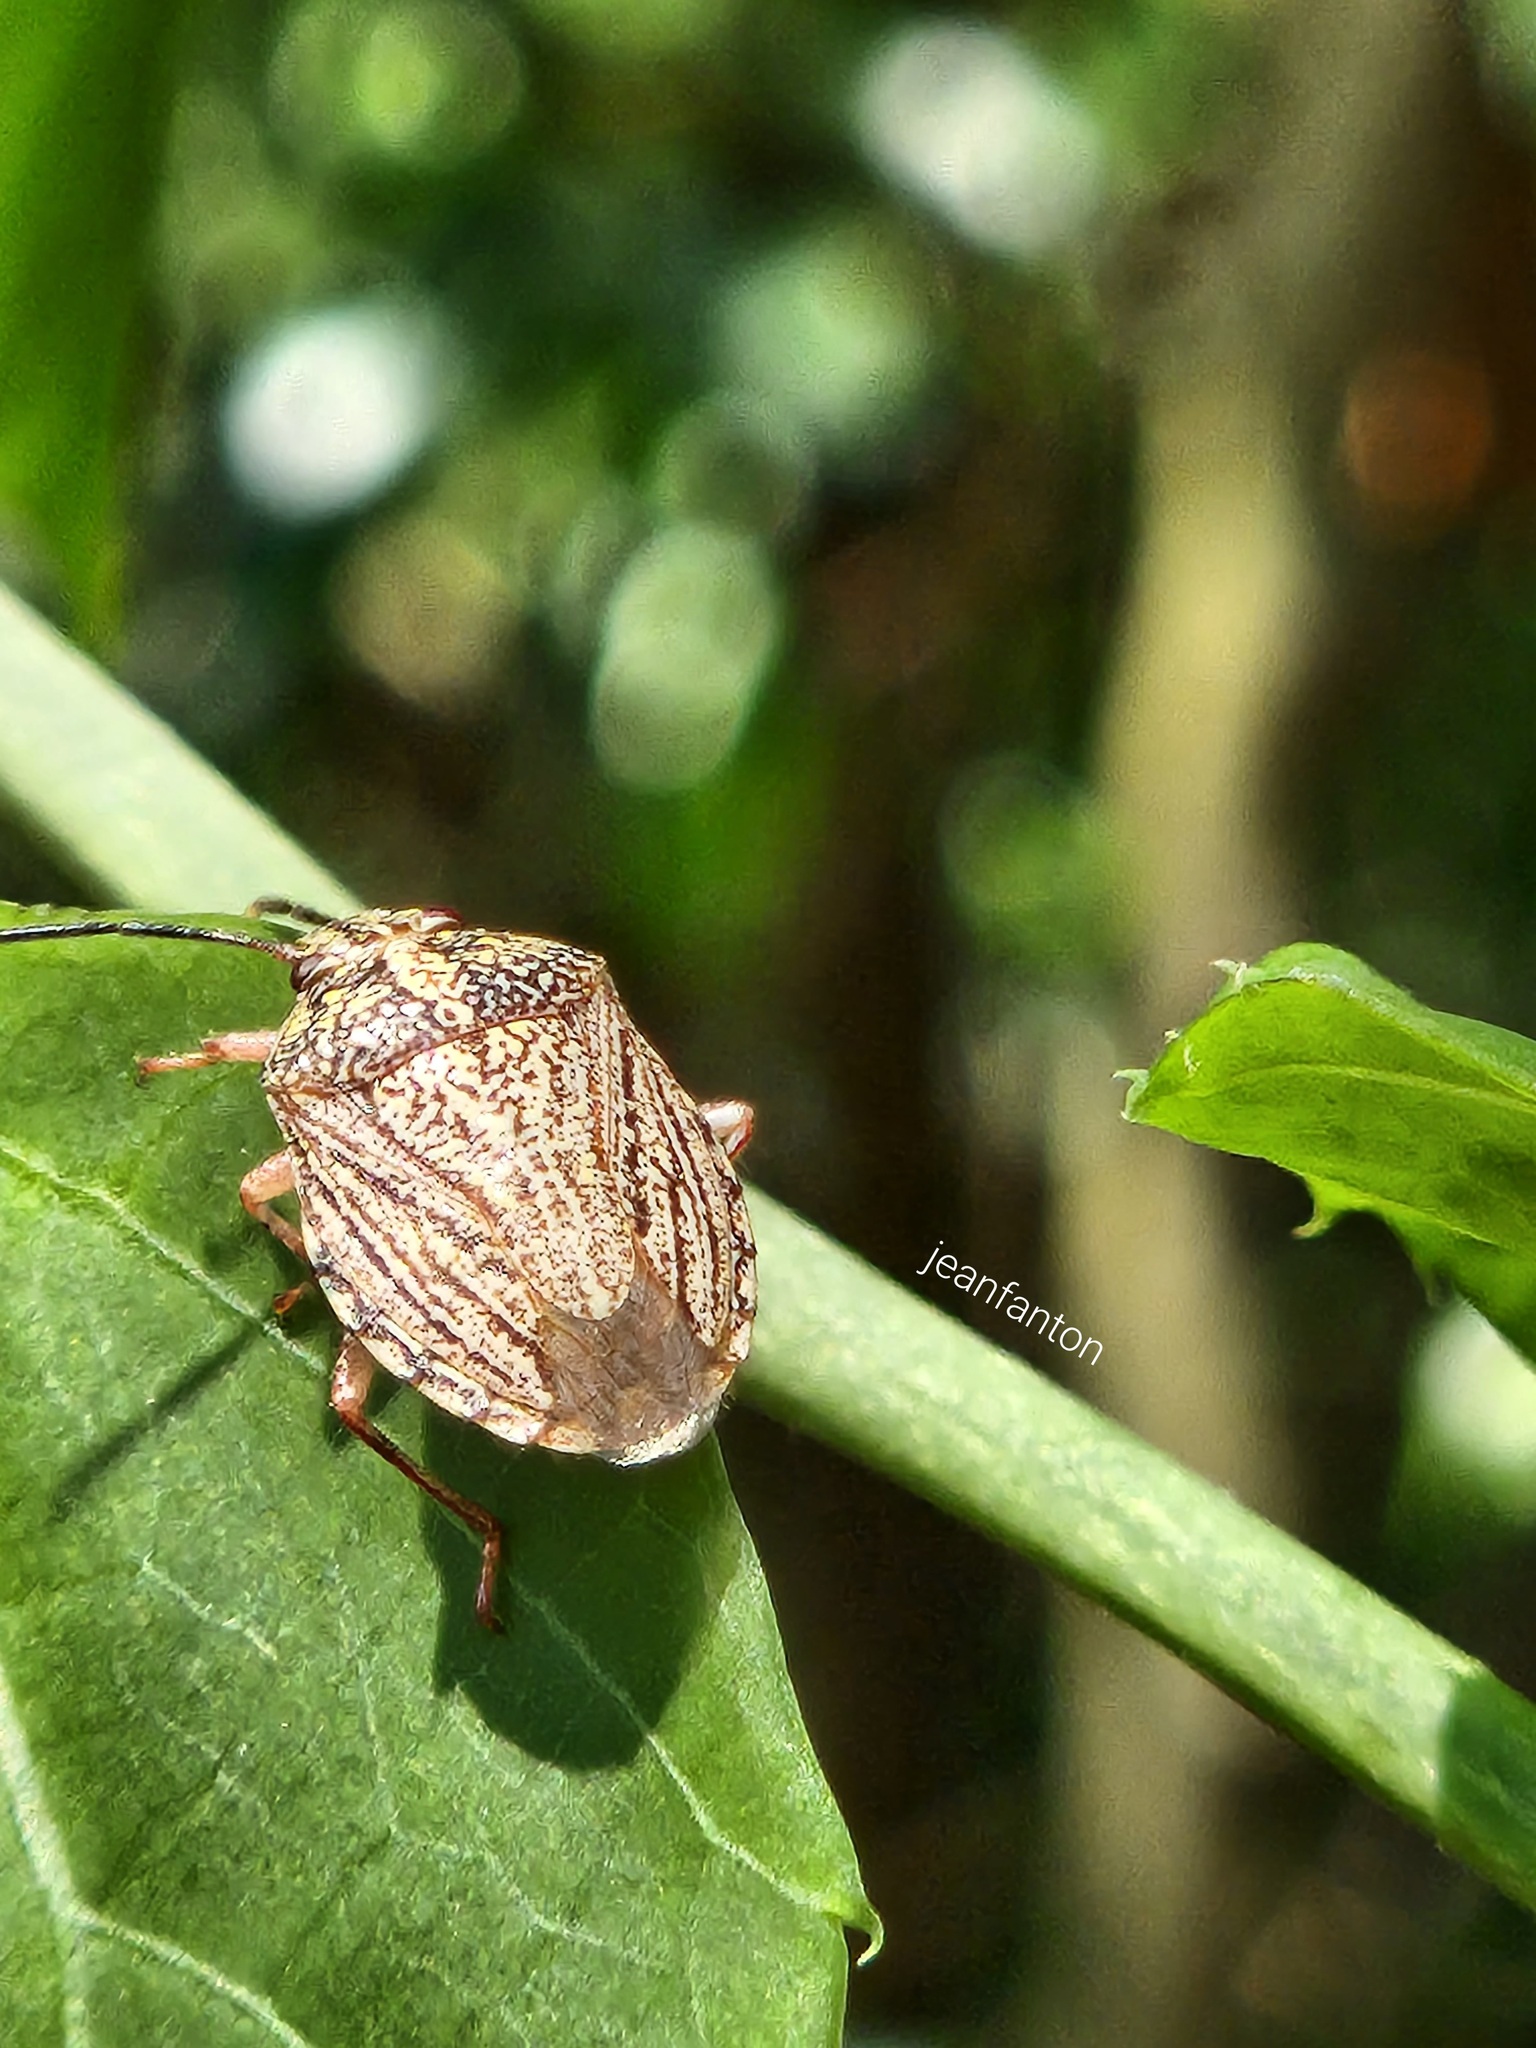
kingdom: Animalia
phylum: Arthropoda
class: Insecta
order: Hemiptera
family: Pentatomidae
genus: Antiteuchus
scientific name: Antiteuchus sepulcralis
